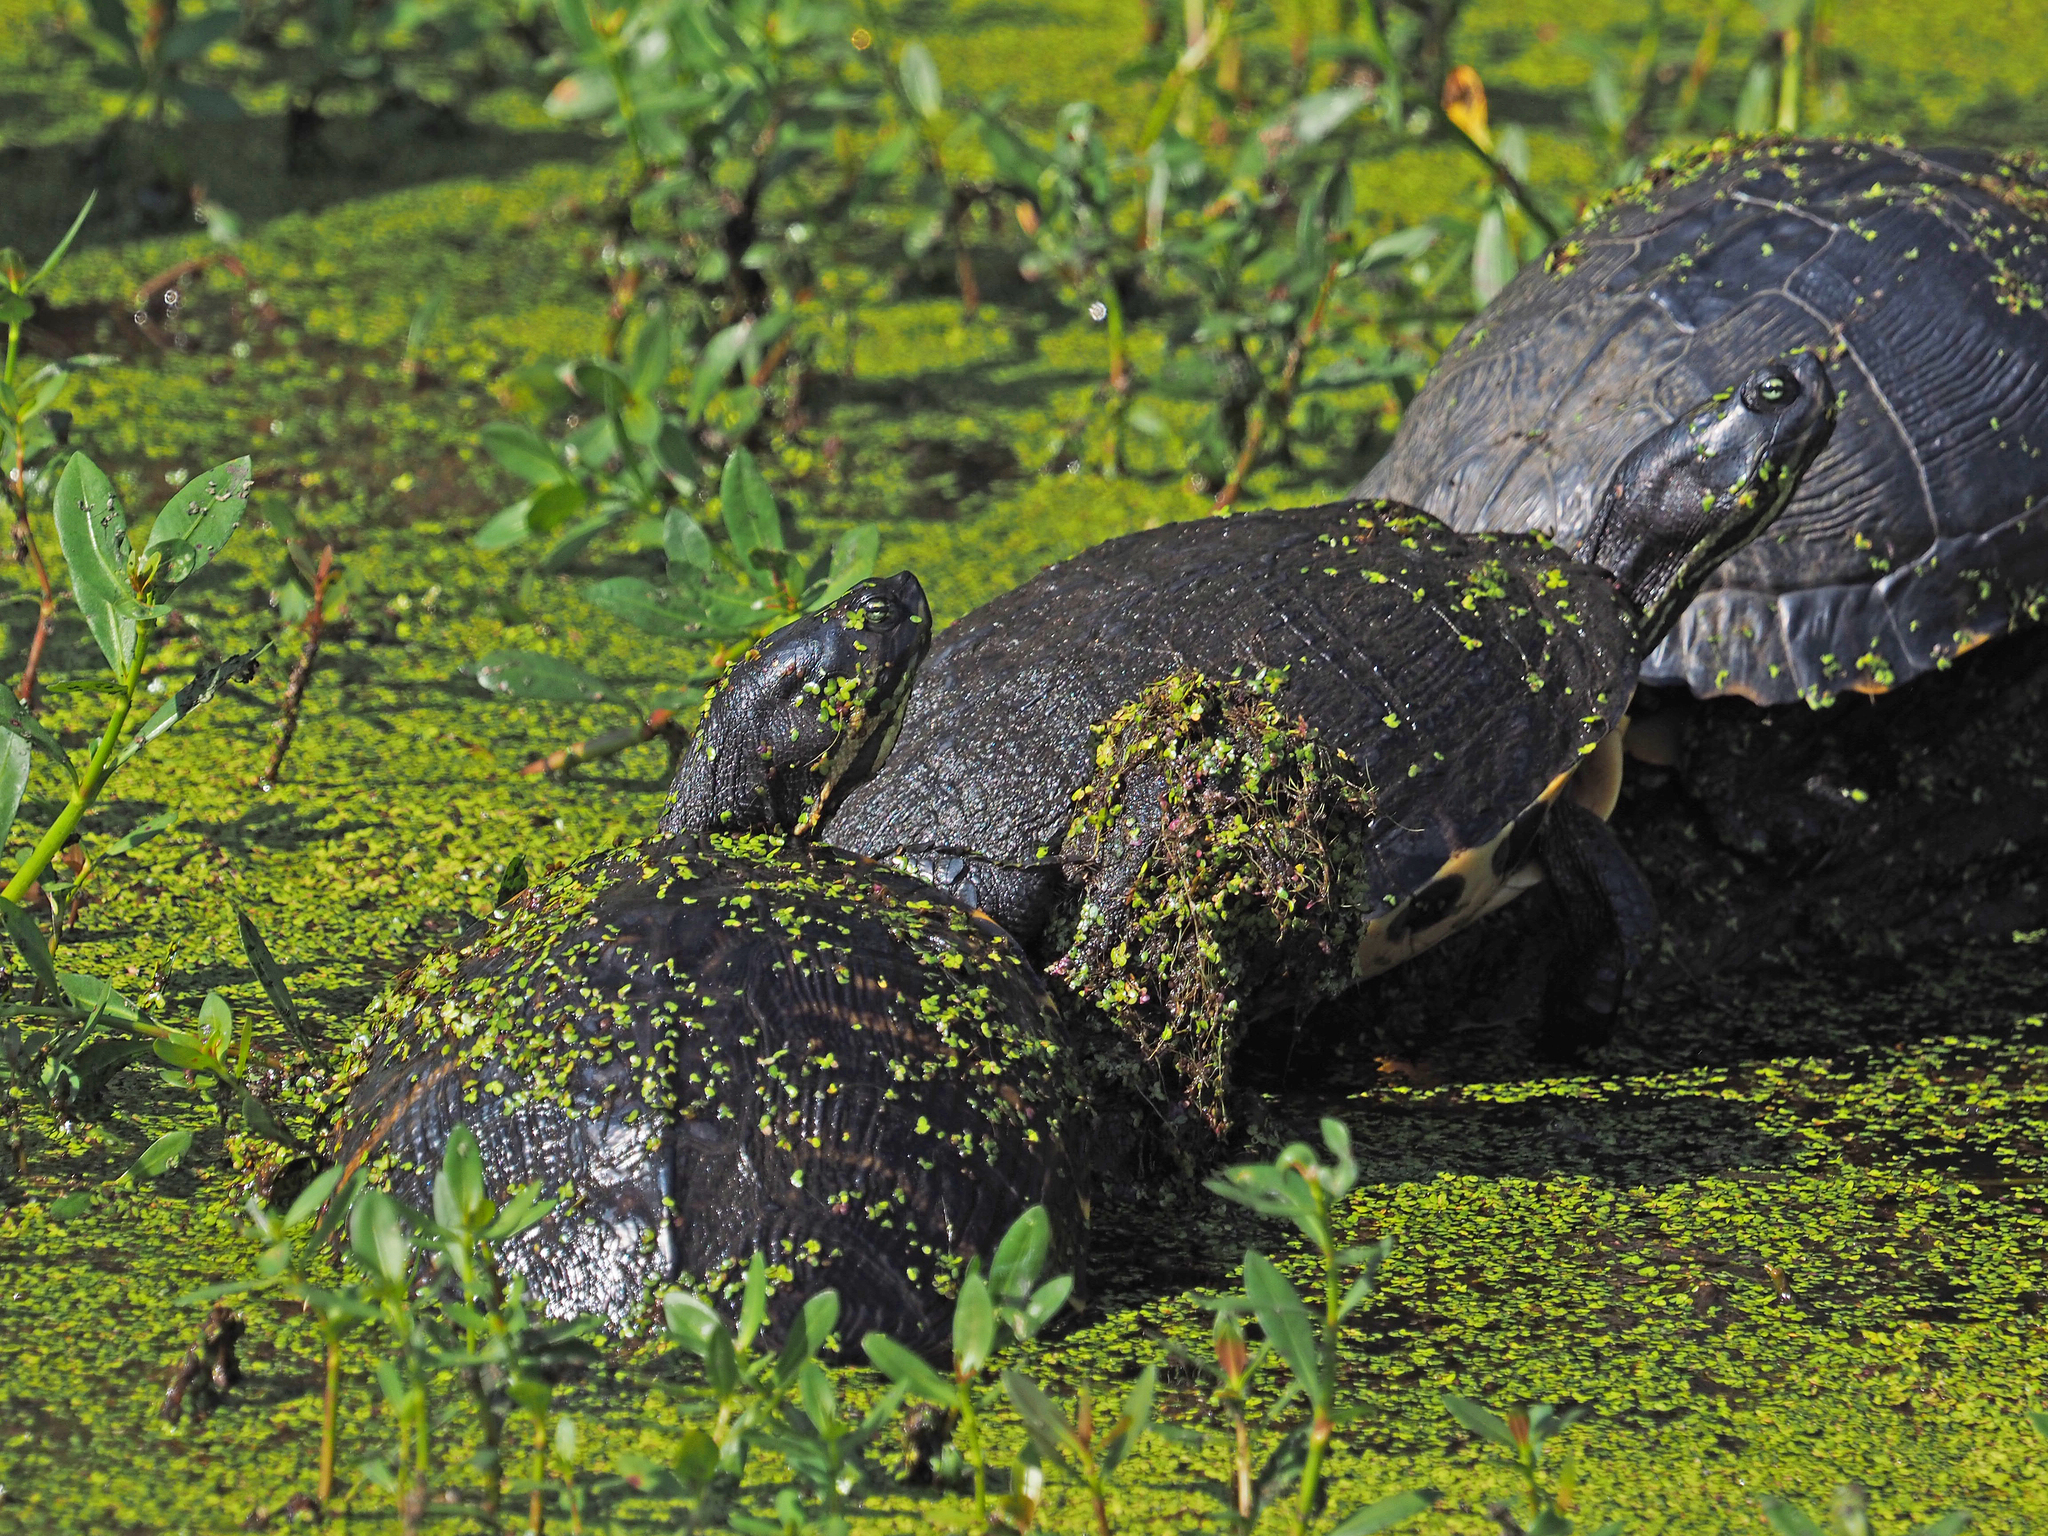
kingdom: Animalia
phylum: Chordata
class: Testudines
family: Emydidae
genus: Trachemys
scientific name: Trachemys scripta
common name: Slider
